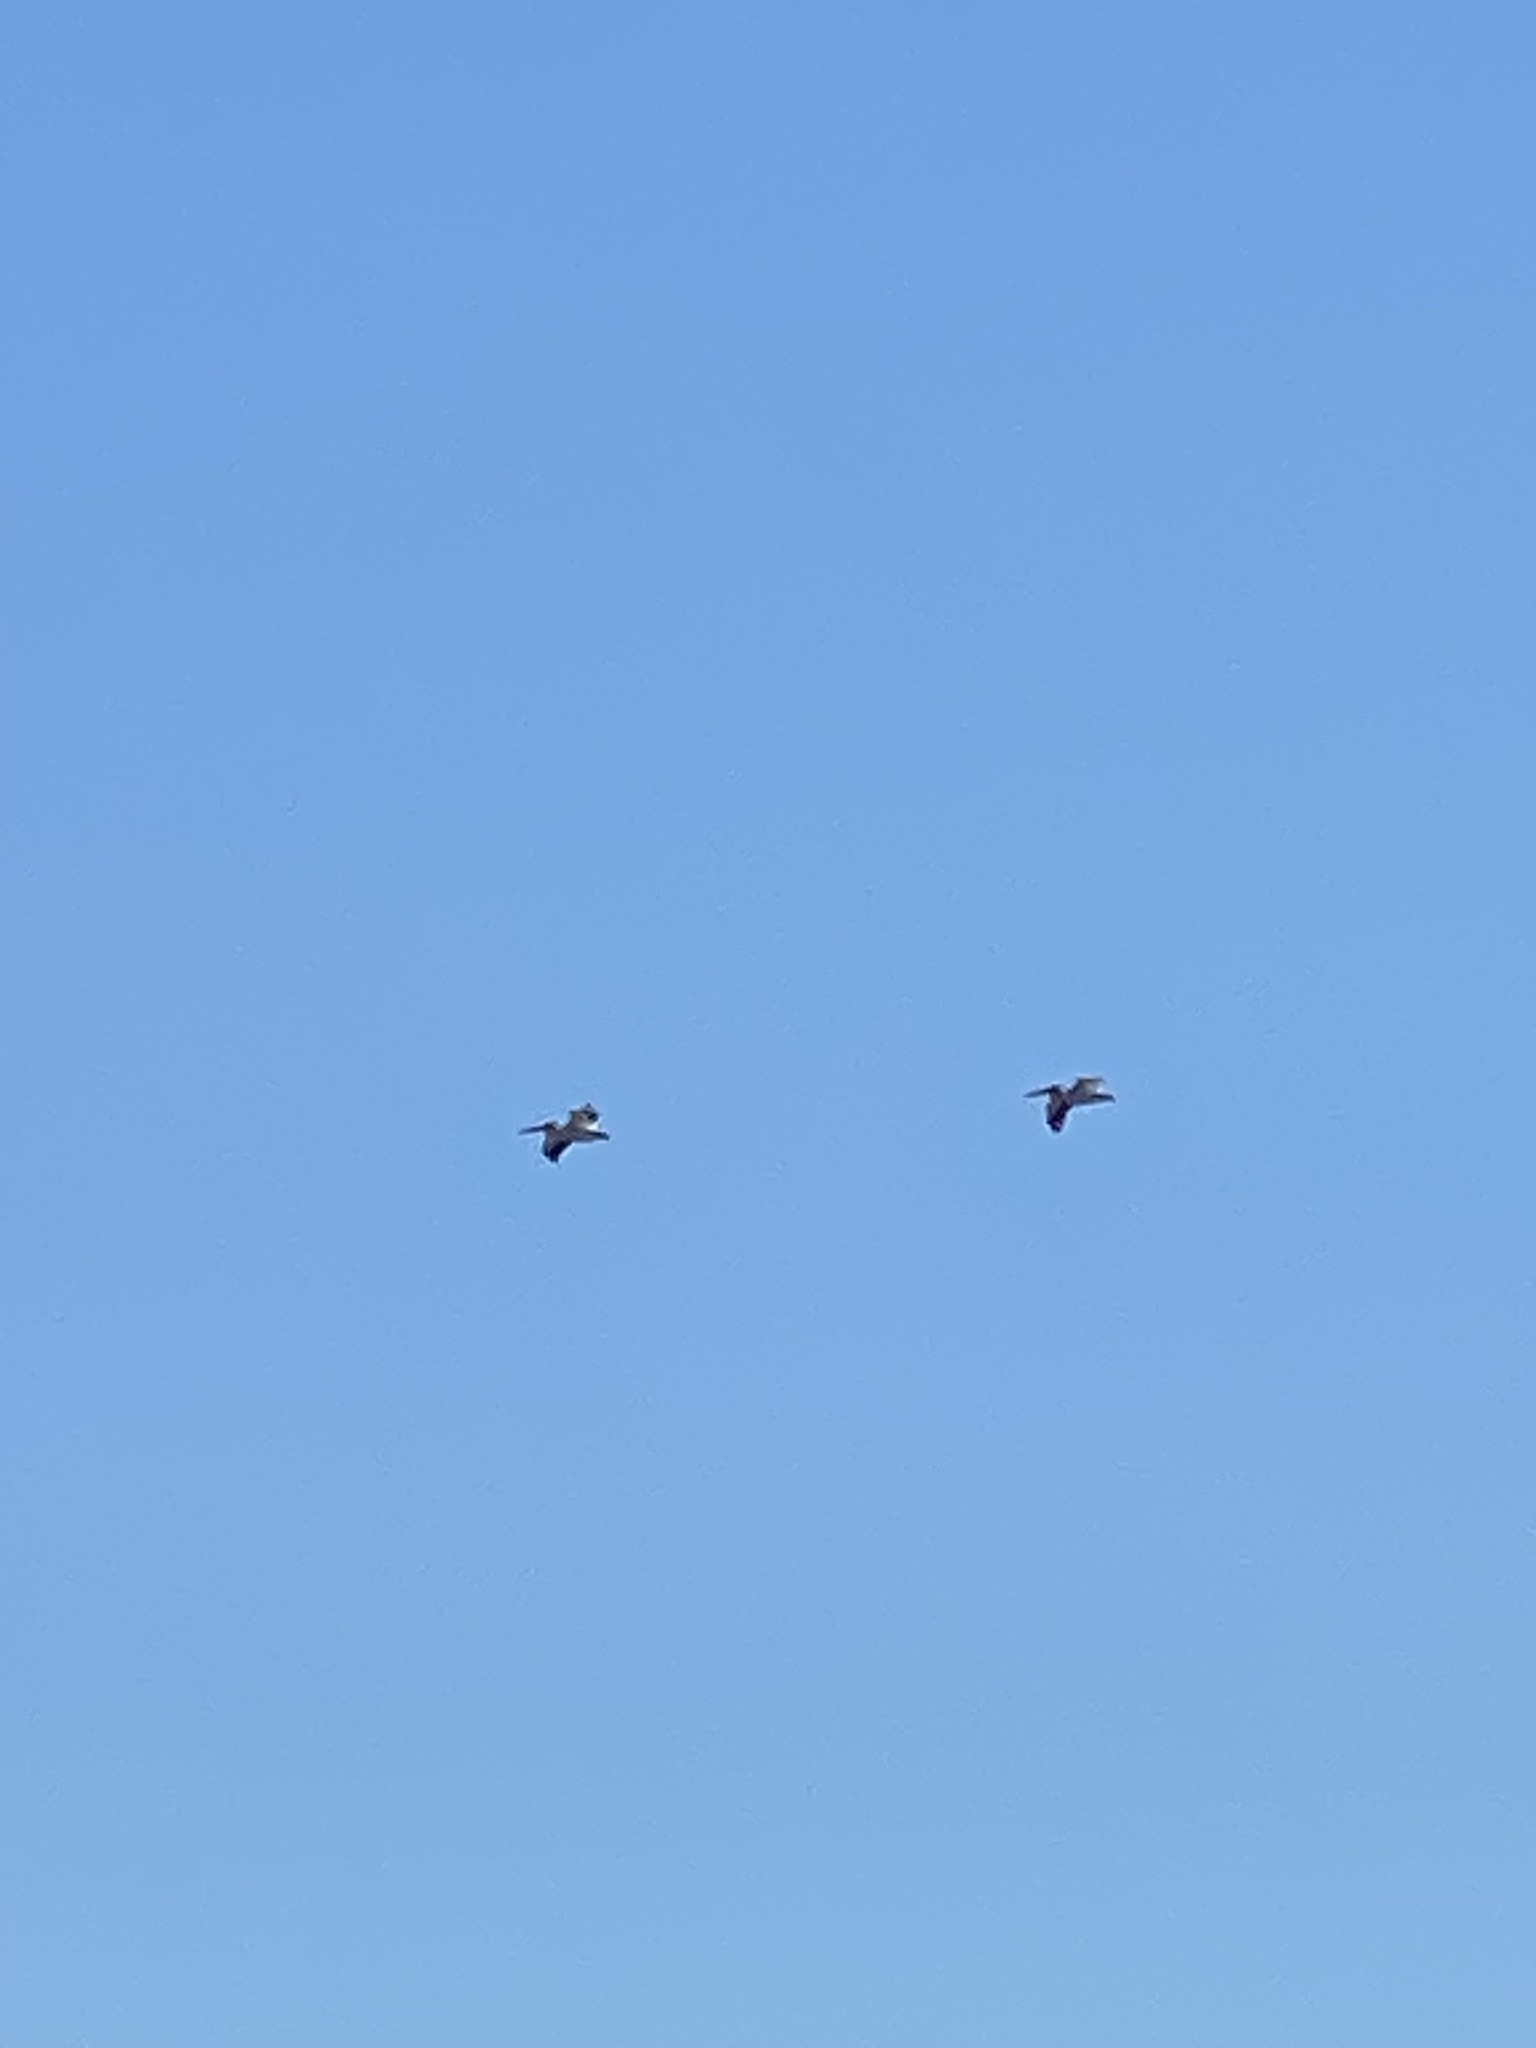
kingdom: Animalia
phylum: Chordata
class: Aves
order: Pelecaniformes
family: Pelecanidae
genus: Pelecanus
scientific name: Pelecanus erythrorhynchos
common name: American white pelican
